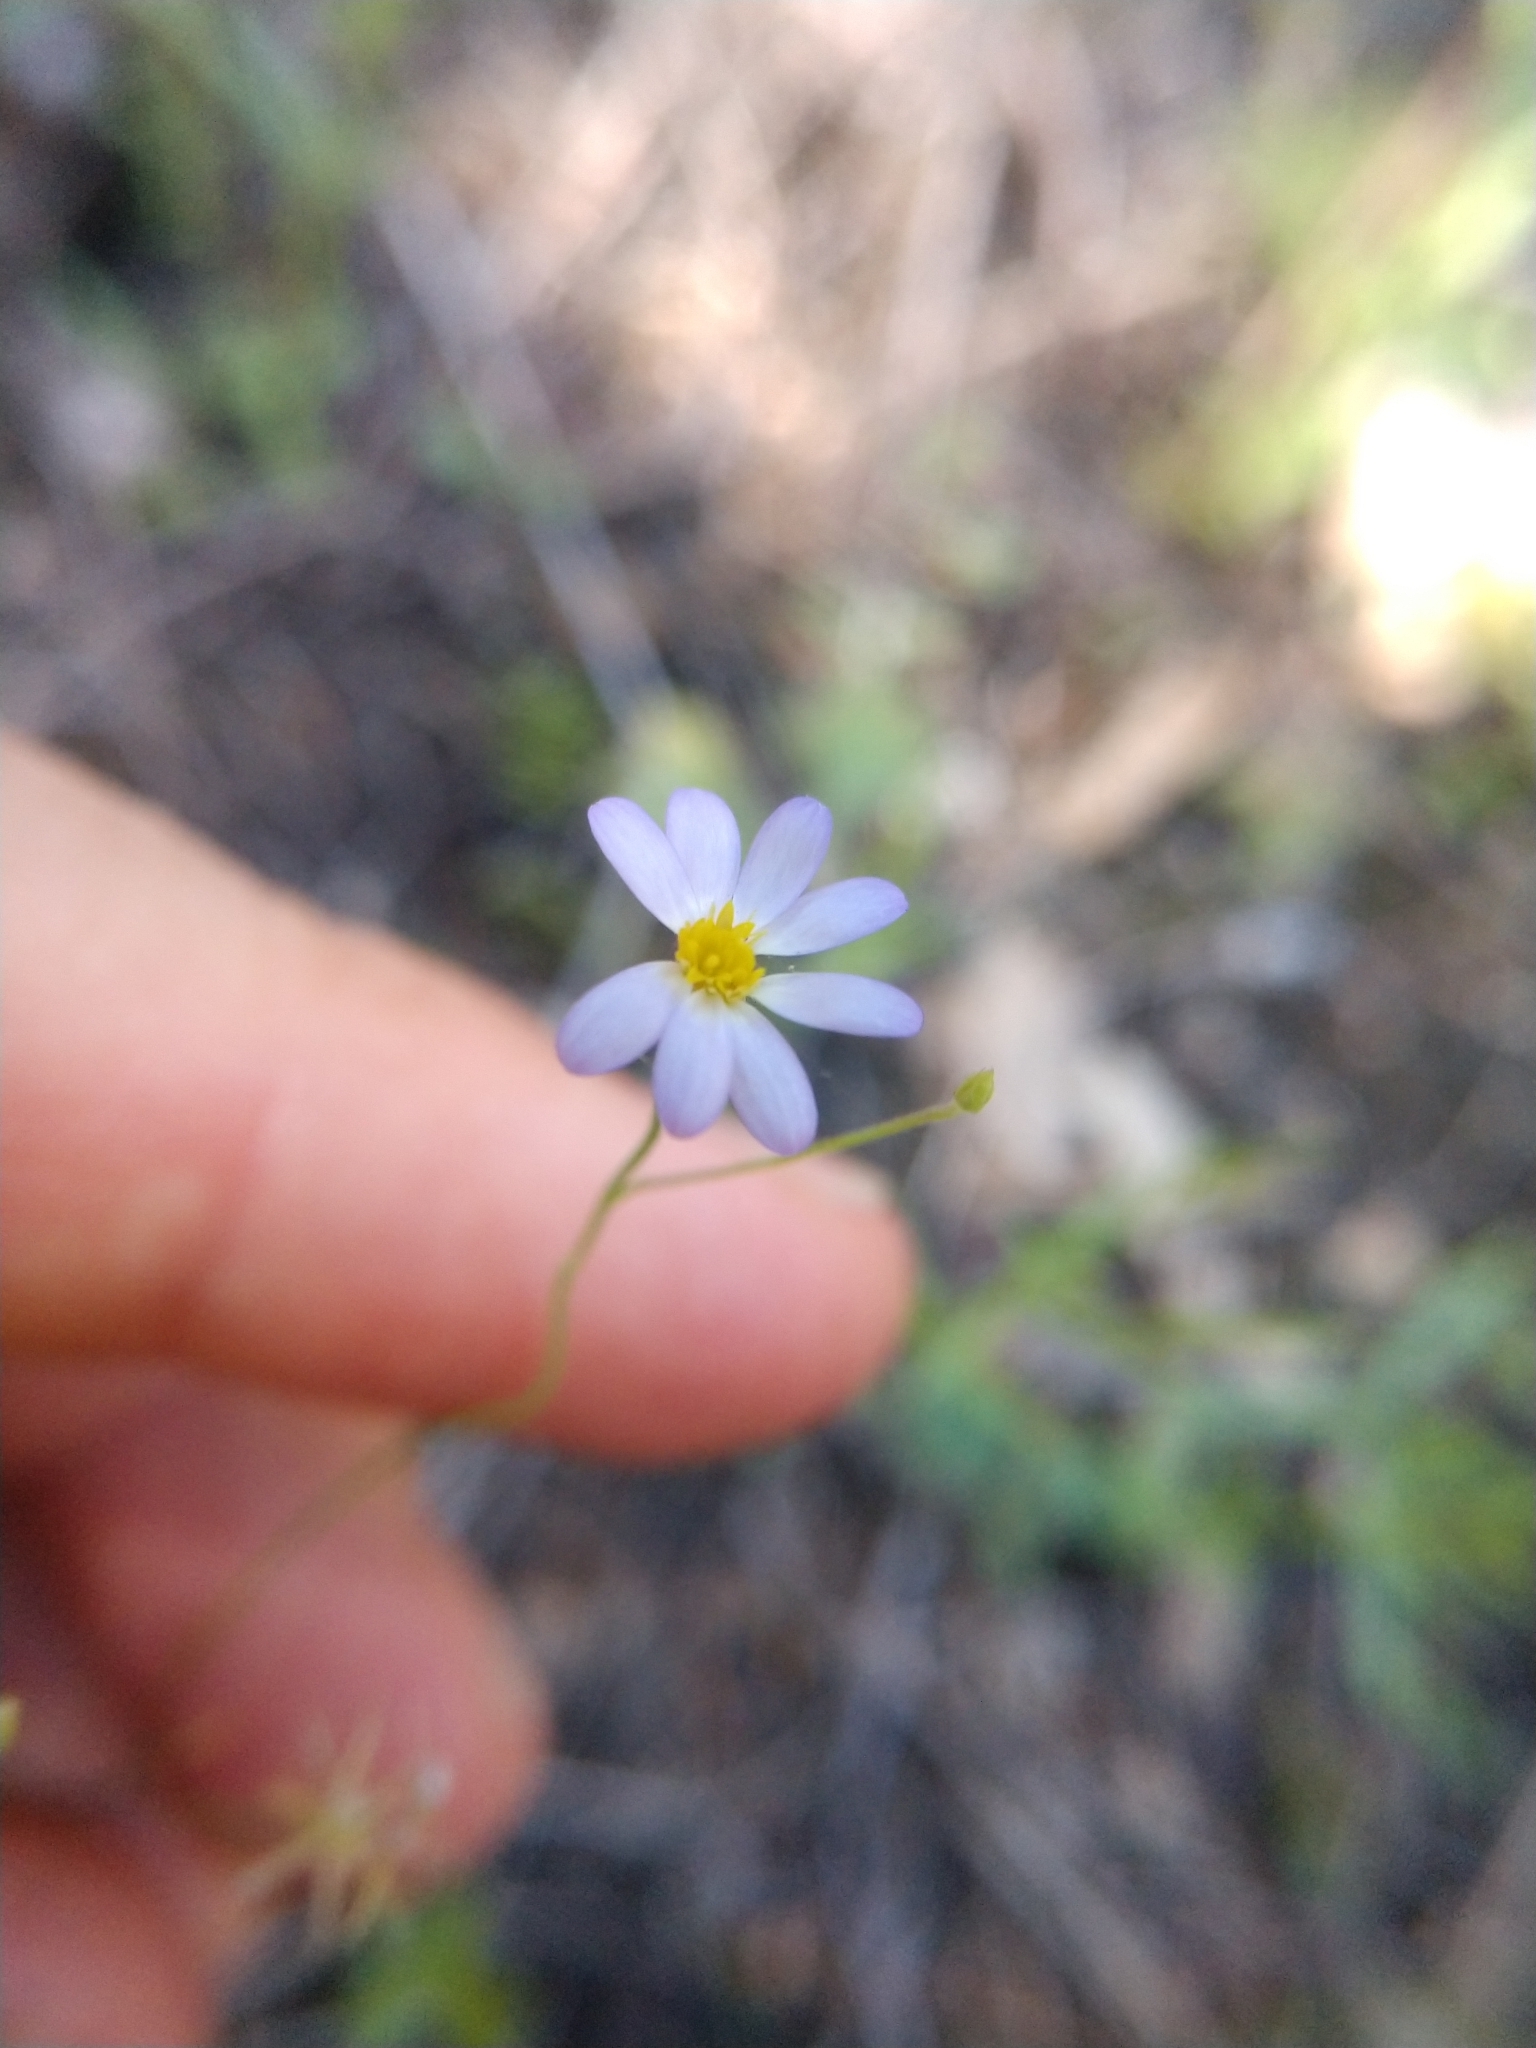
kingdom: Plantae
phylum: Tracheophyta
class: Magnoliopsida
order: Asterales
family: Asteraceae
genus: Chaetopappa
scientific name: Chaetopappa asteroides
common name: Tiny lazy daisy
